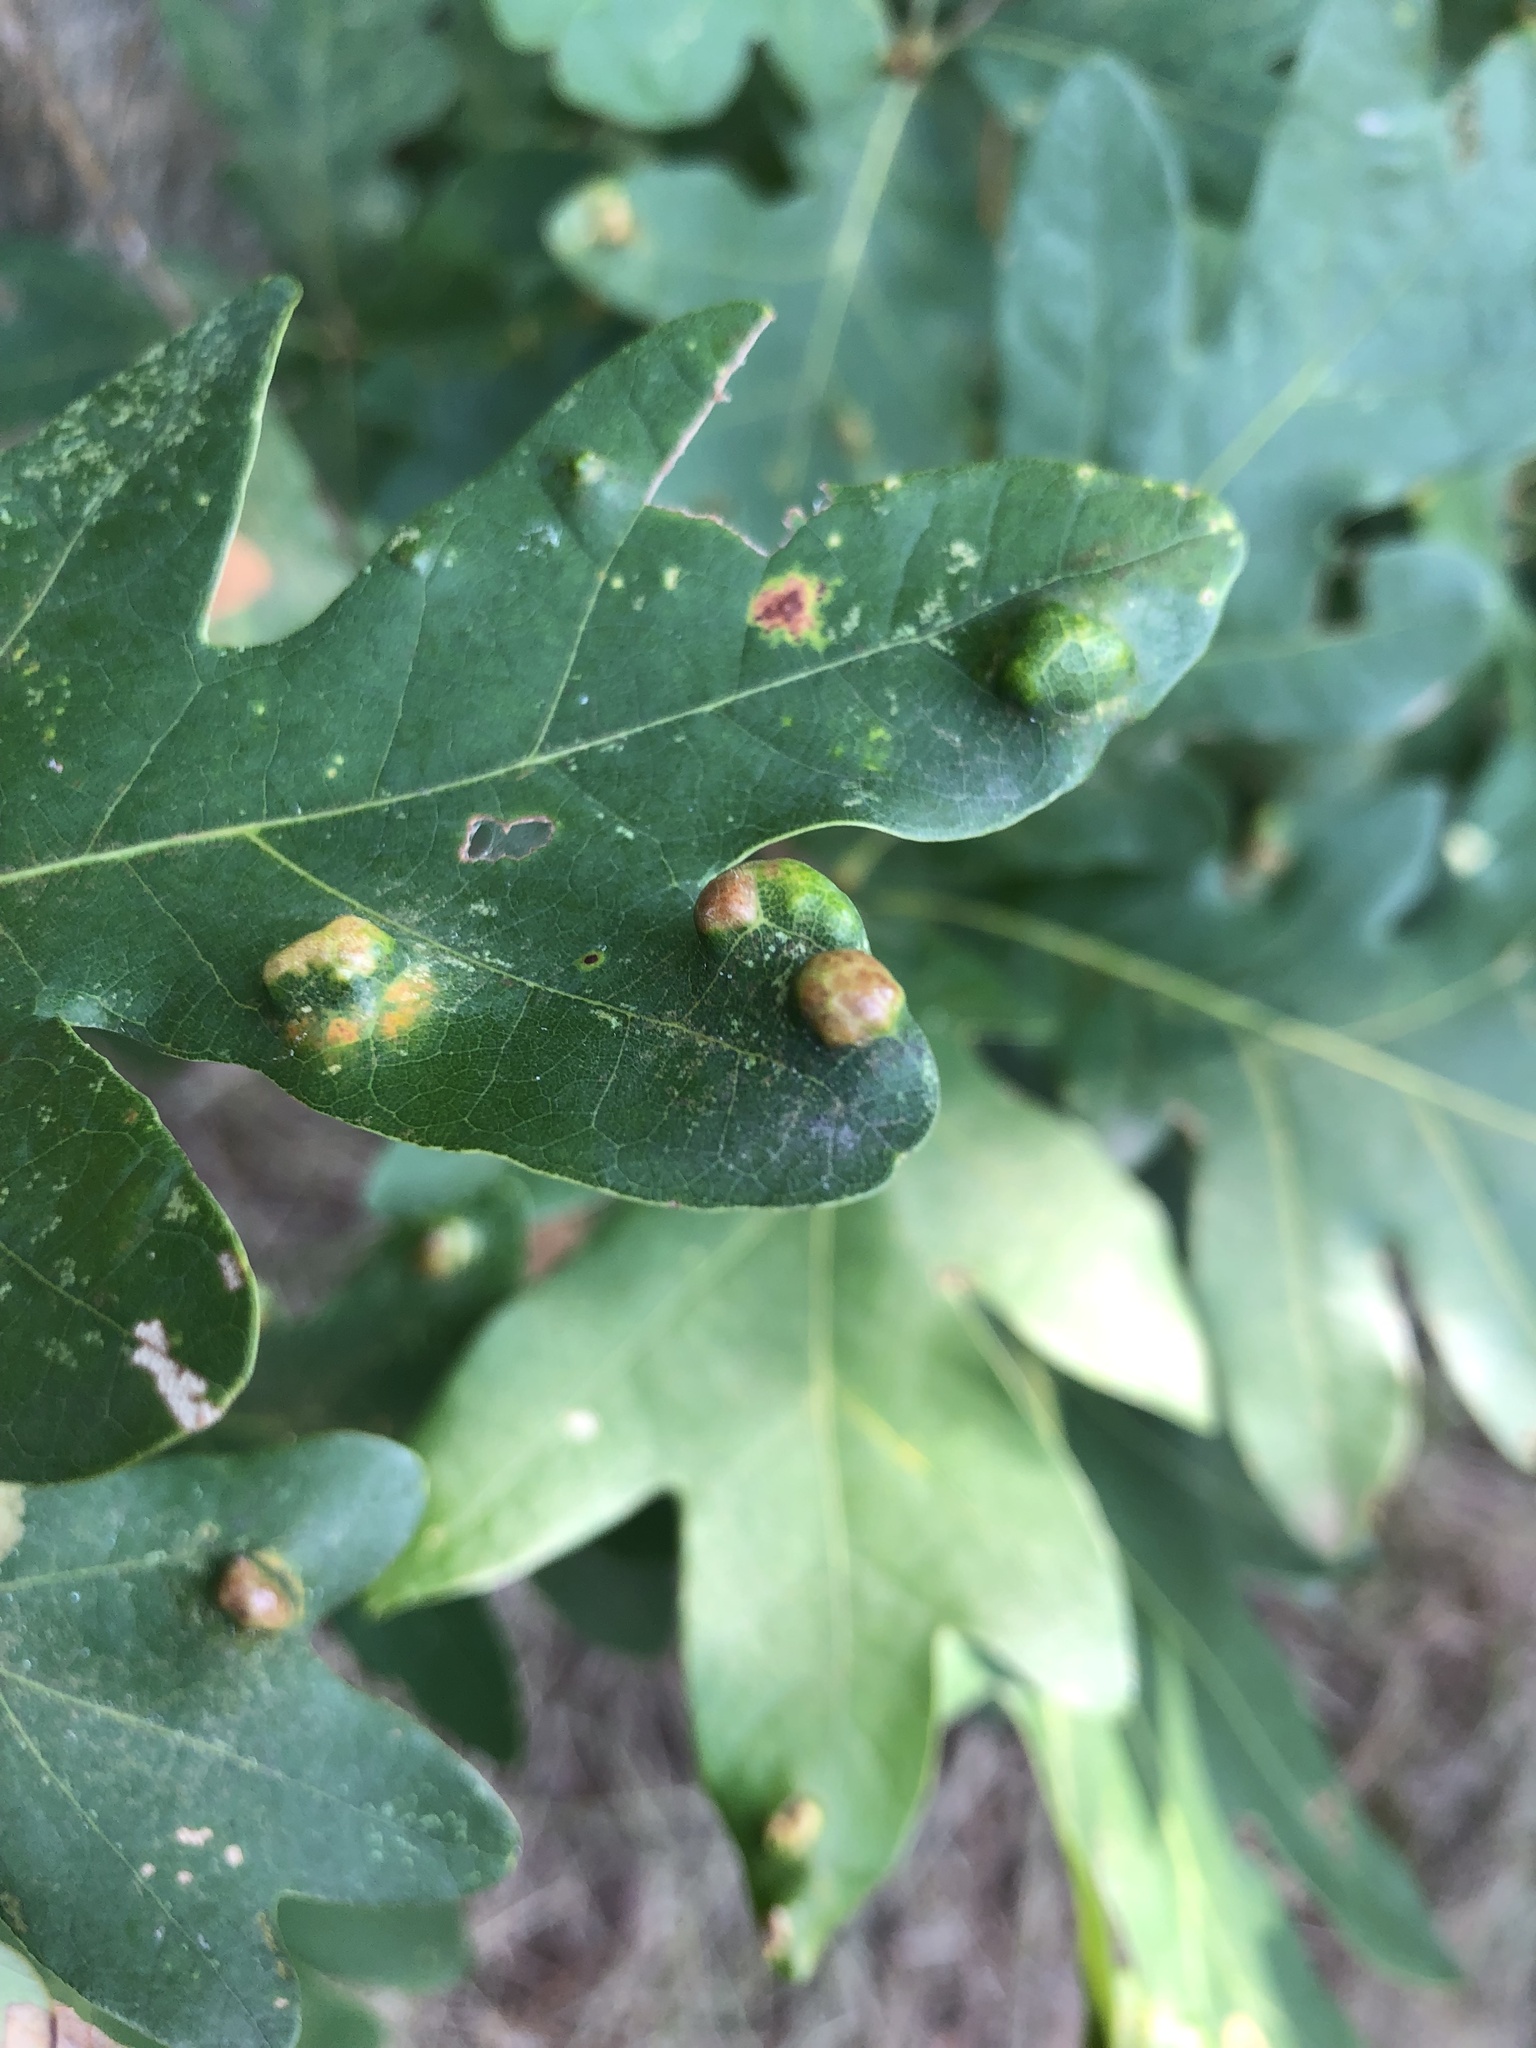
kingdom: Animalia
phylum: Arthropoda
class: Arachnida
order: Trombidiformes
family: Eriophyidae
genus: Aceria
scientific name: Aceria
